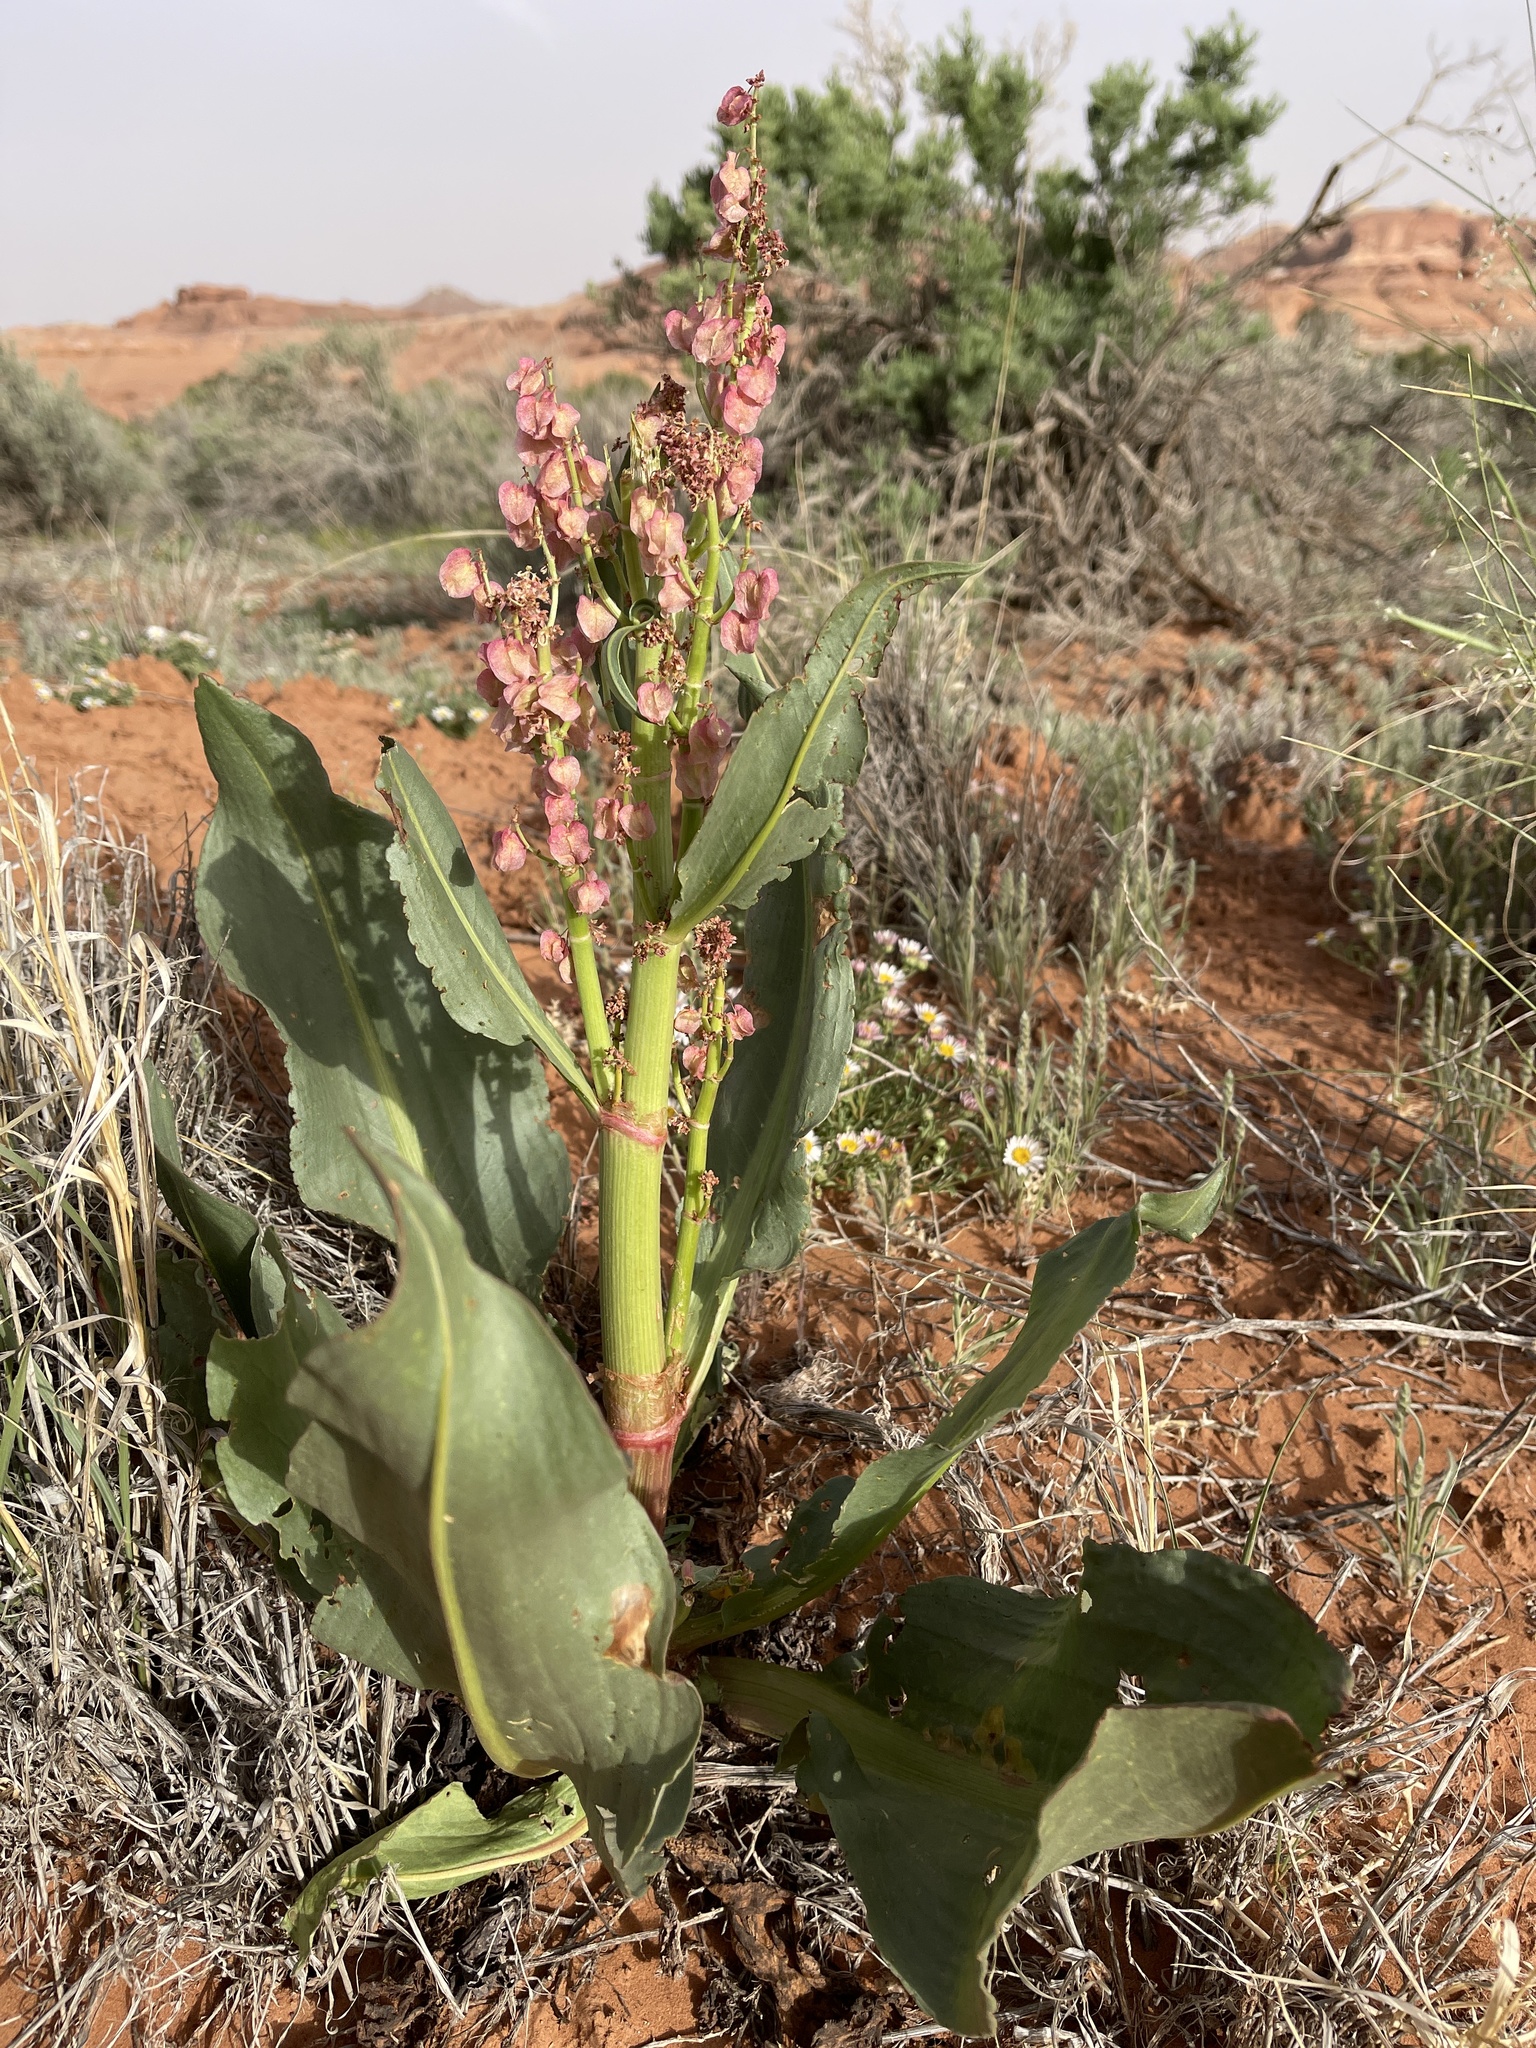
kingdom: Plantae
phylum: Tracheophyta
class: Magnoliopsida
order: Caryophyllales
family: Polygonaceae
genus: Rumex
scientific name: Rumex hymenosepalus
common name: Ganagra
